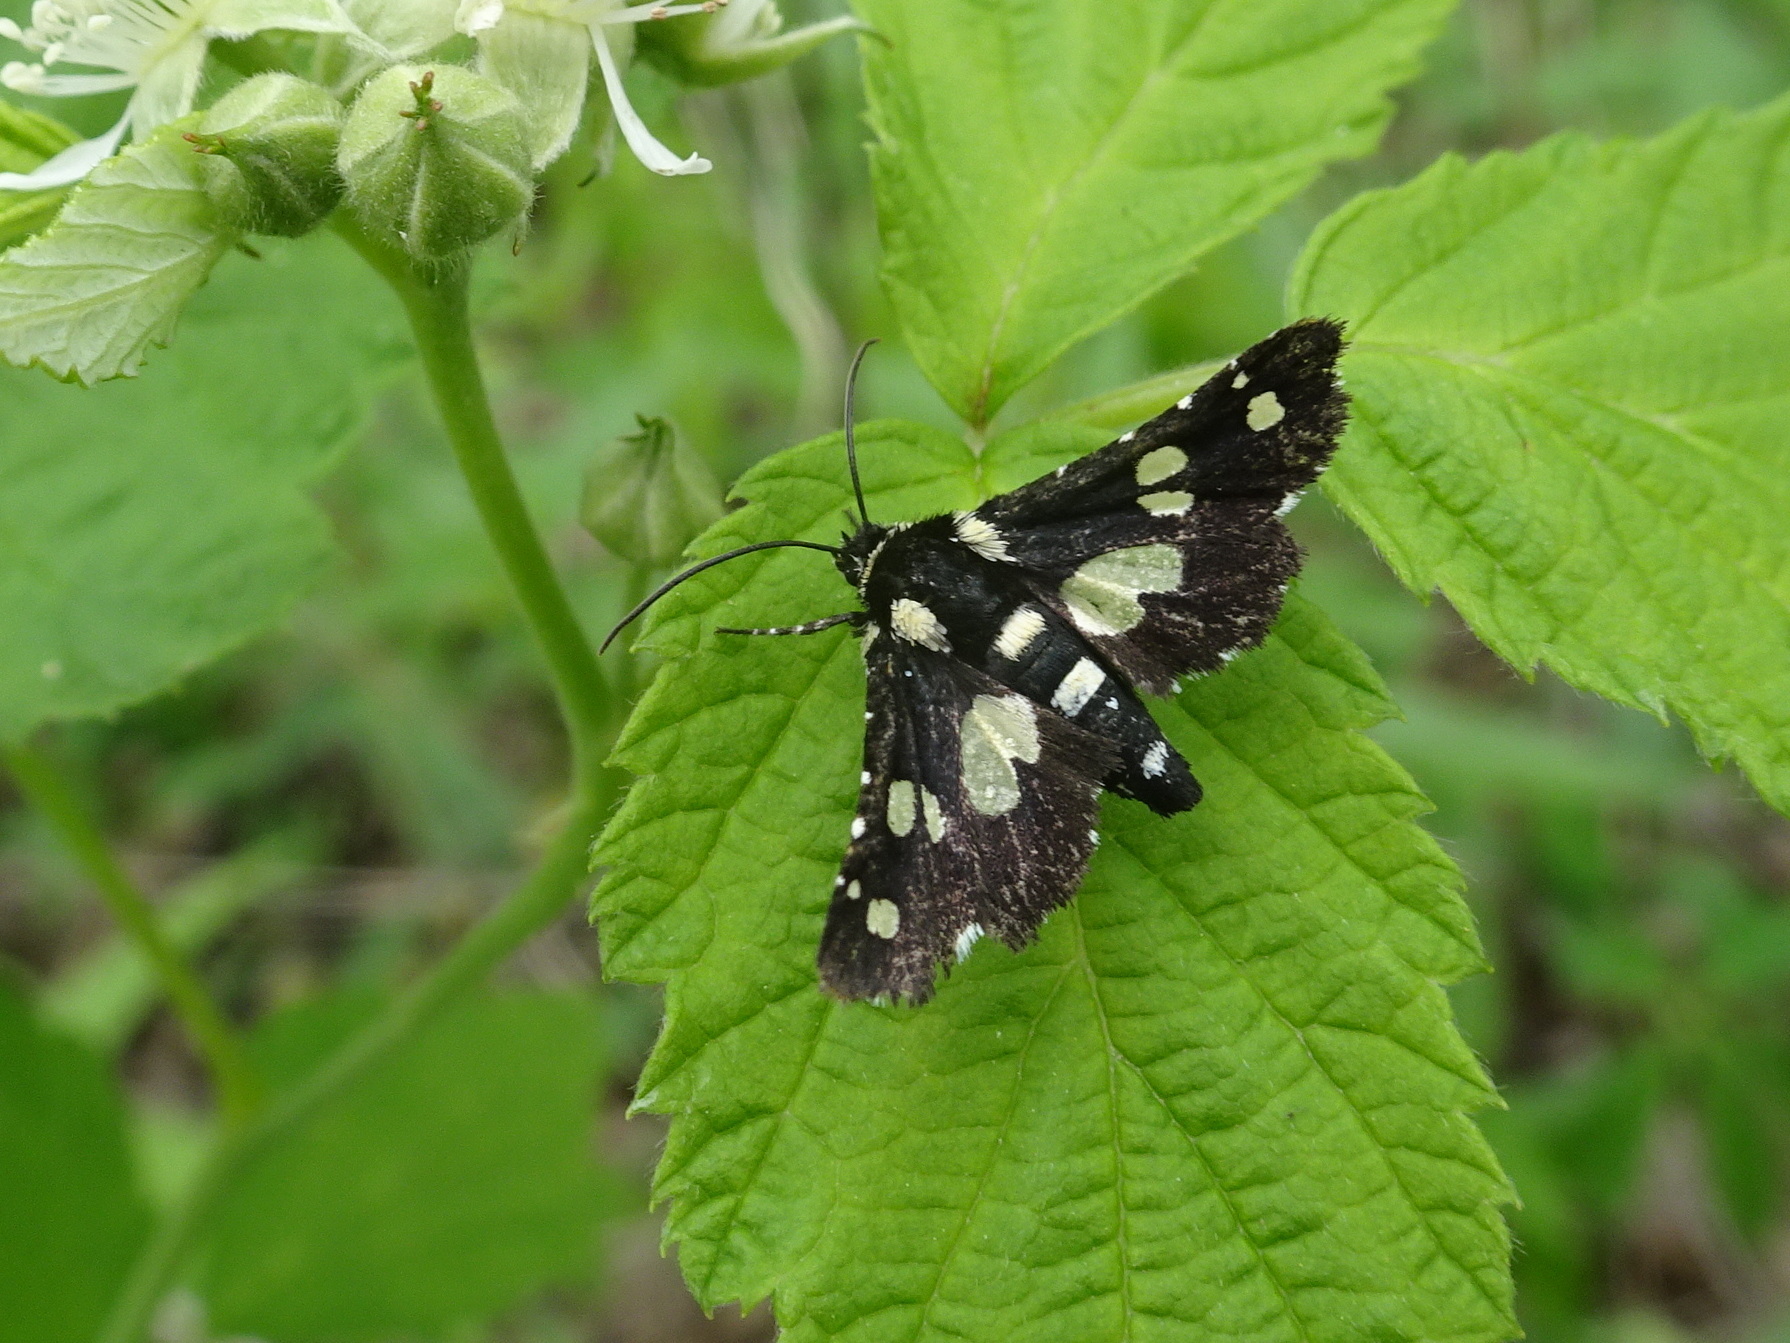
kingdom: Animalia
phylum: Arthropoda
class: Insecta
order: Lepidoptera
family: Thyrididae
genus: Pseudothyris
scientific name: Pseudothyris sepulchralis
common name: Mournful thyris moth
